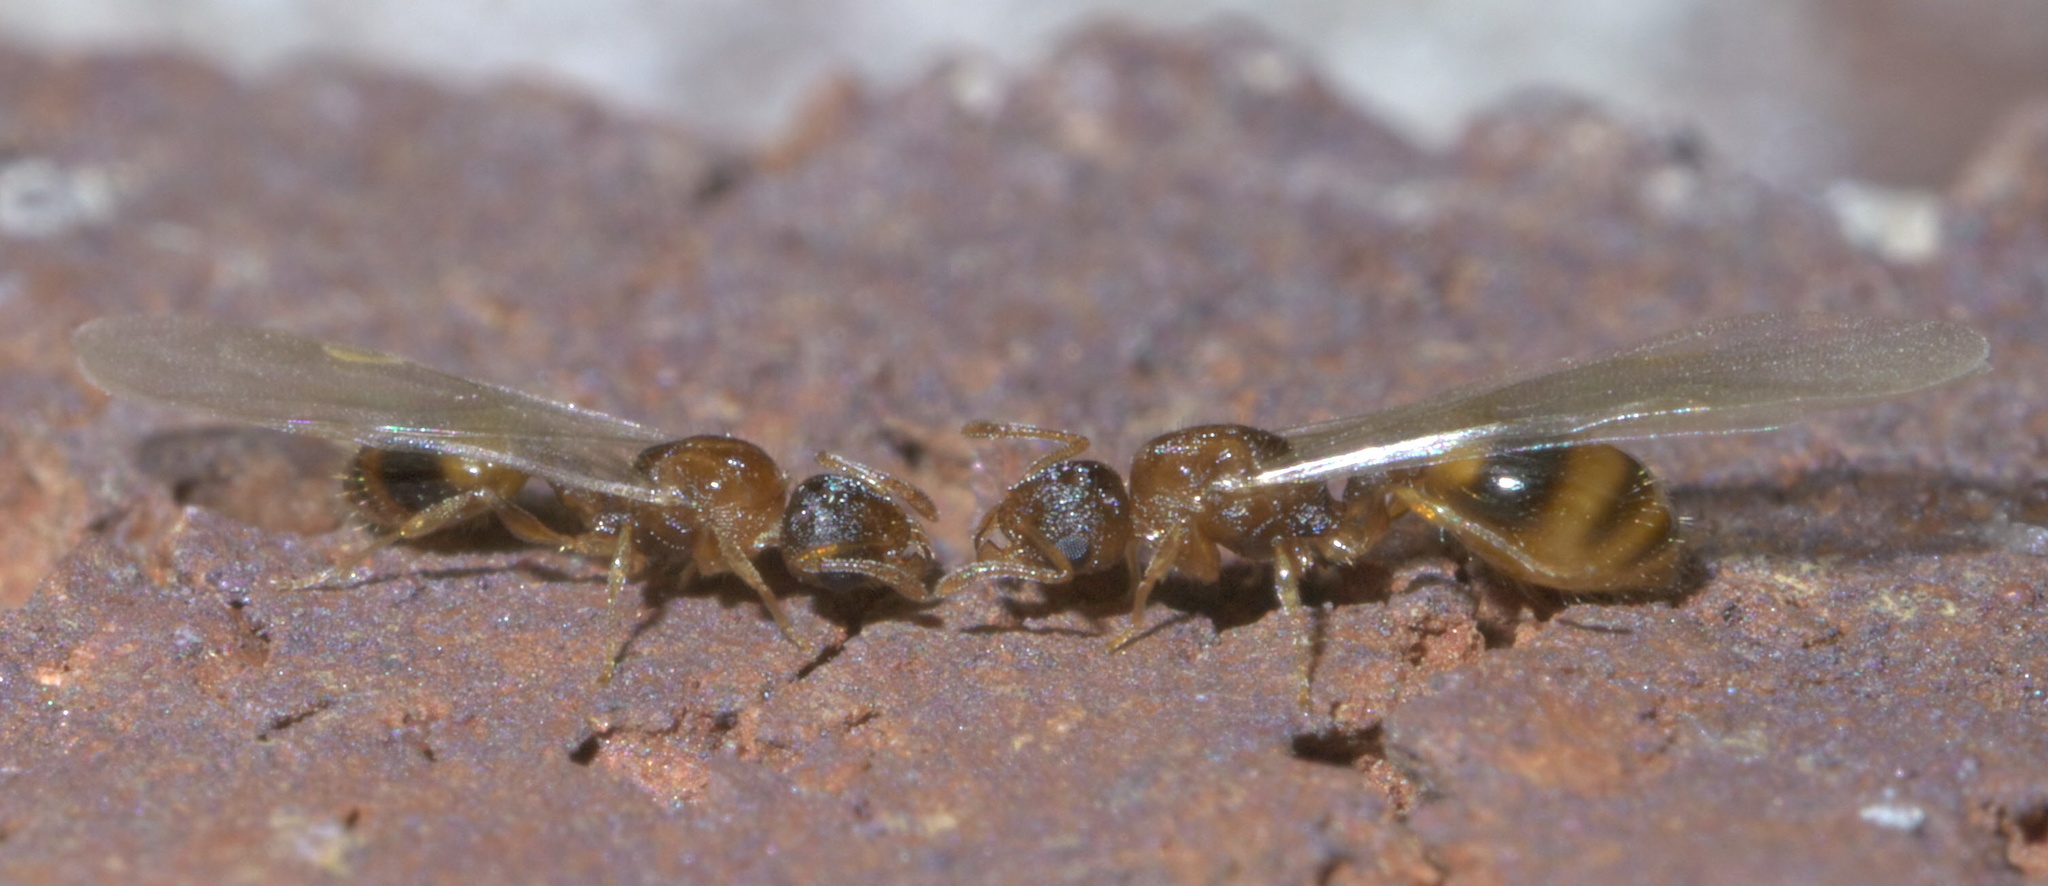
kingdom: Animalia
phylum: Arthropoda
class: Insecta
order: Hymenoptera
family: Formicidae
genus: Temnothorax
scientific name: Temnothorax curvispinosus
